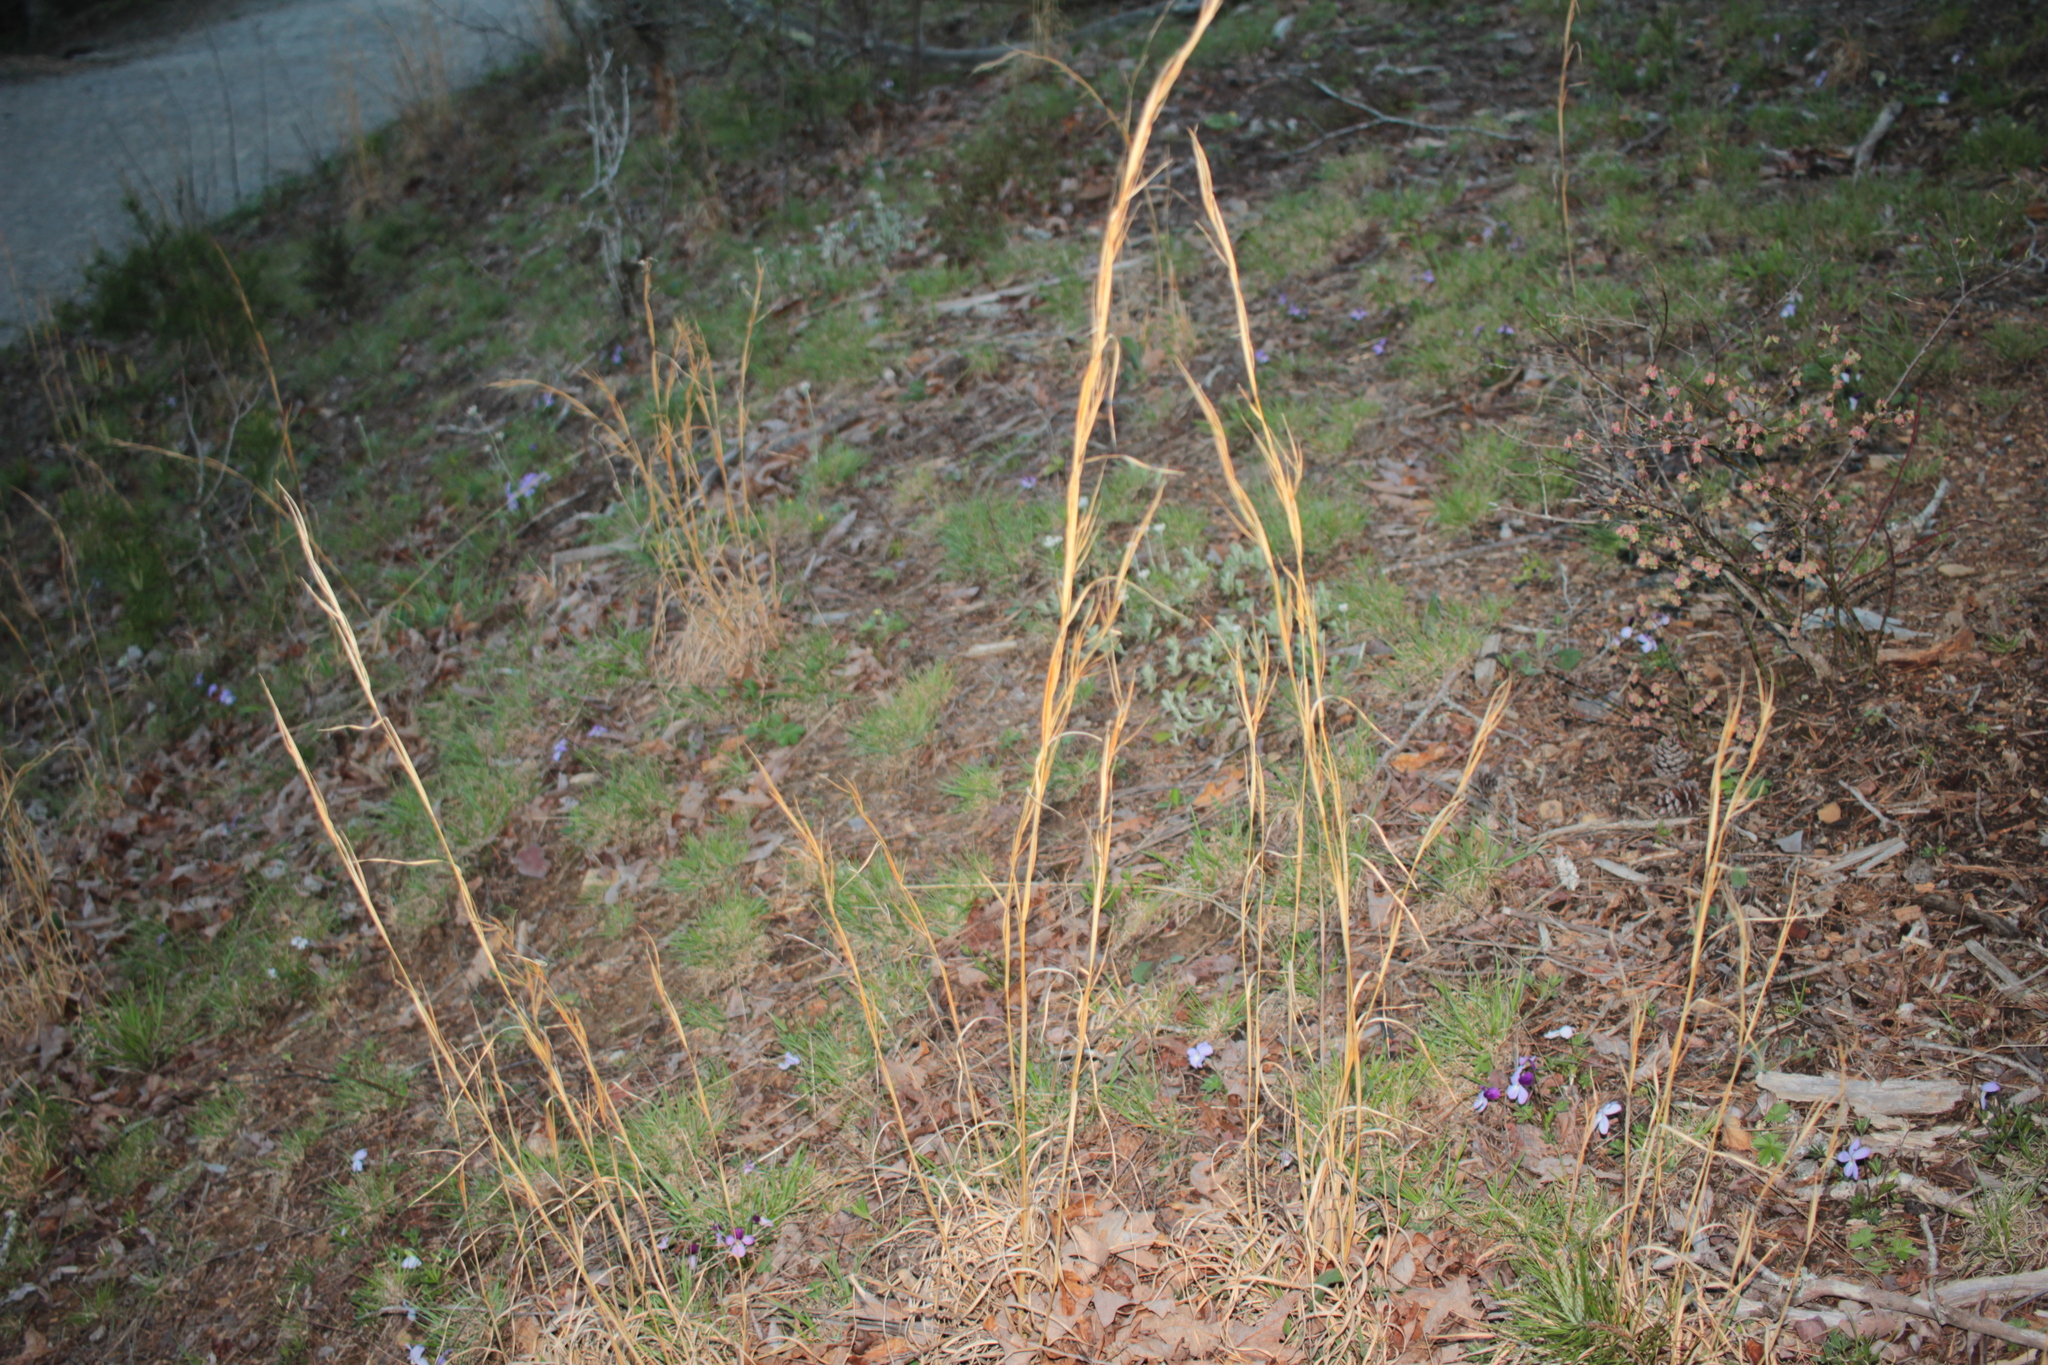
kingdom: Plantae
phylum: Tracheophyta
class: Liliopsida
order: Poales
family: Poaceae
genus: Andropogon
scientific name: Andropogon virginicus
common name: Broomsedge bluestem
